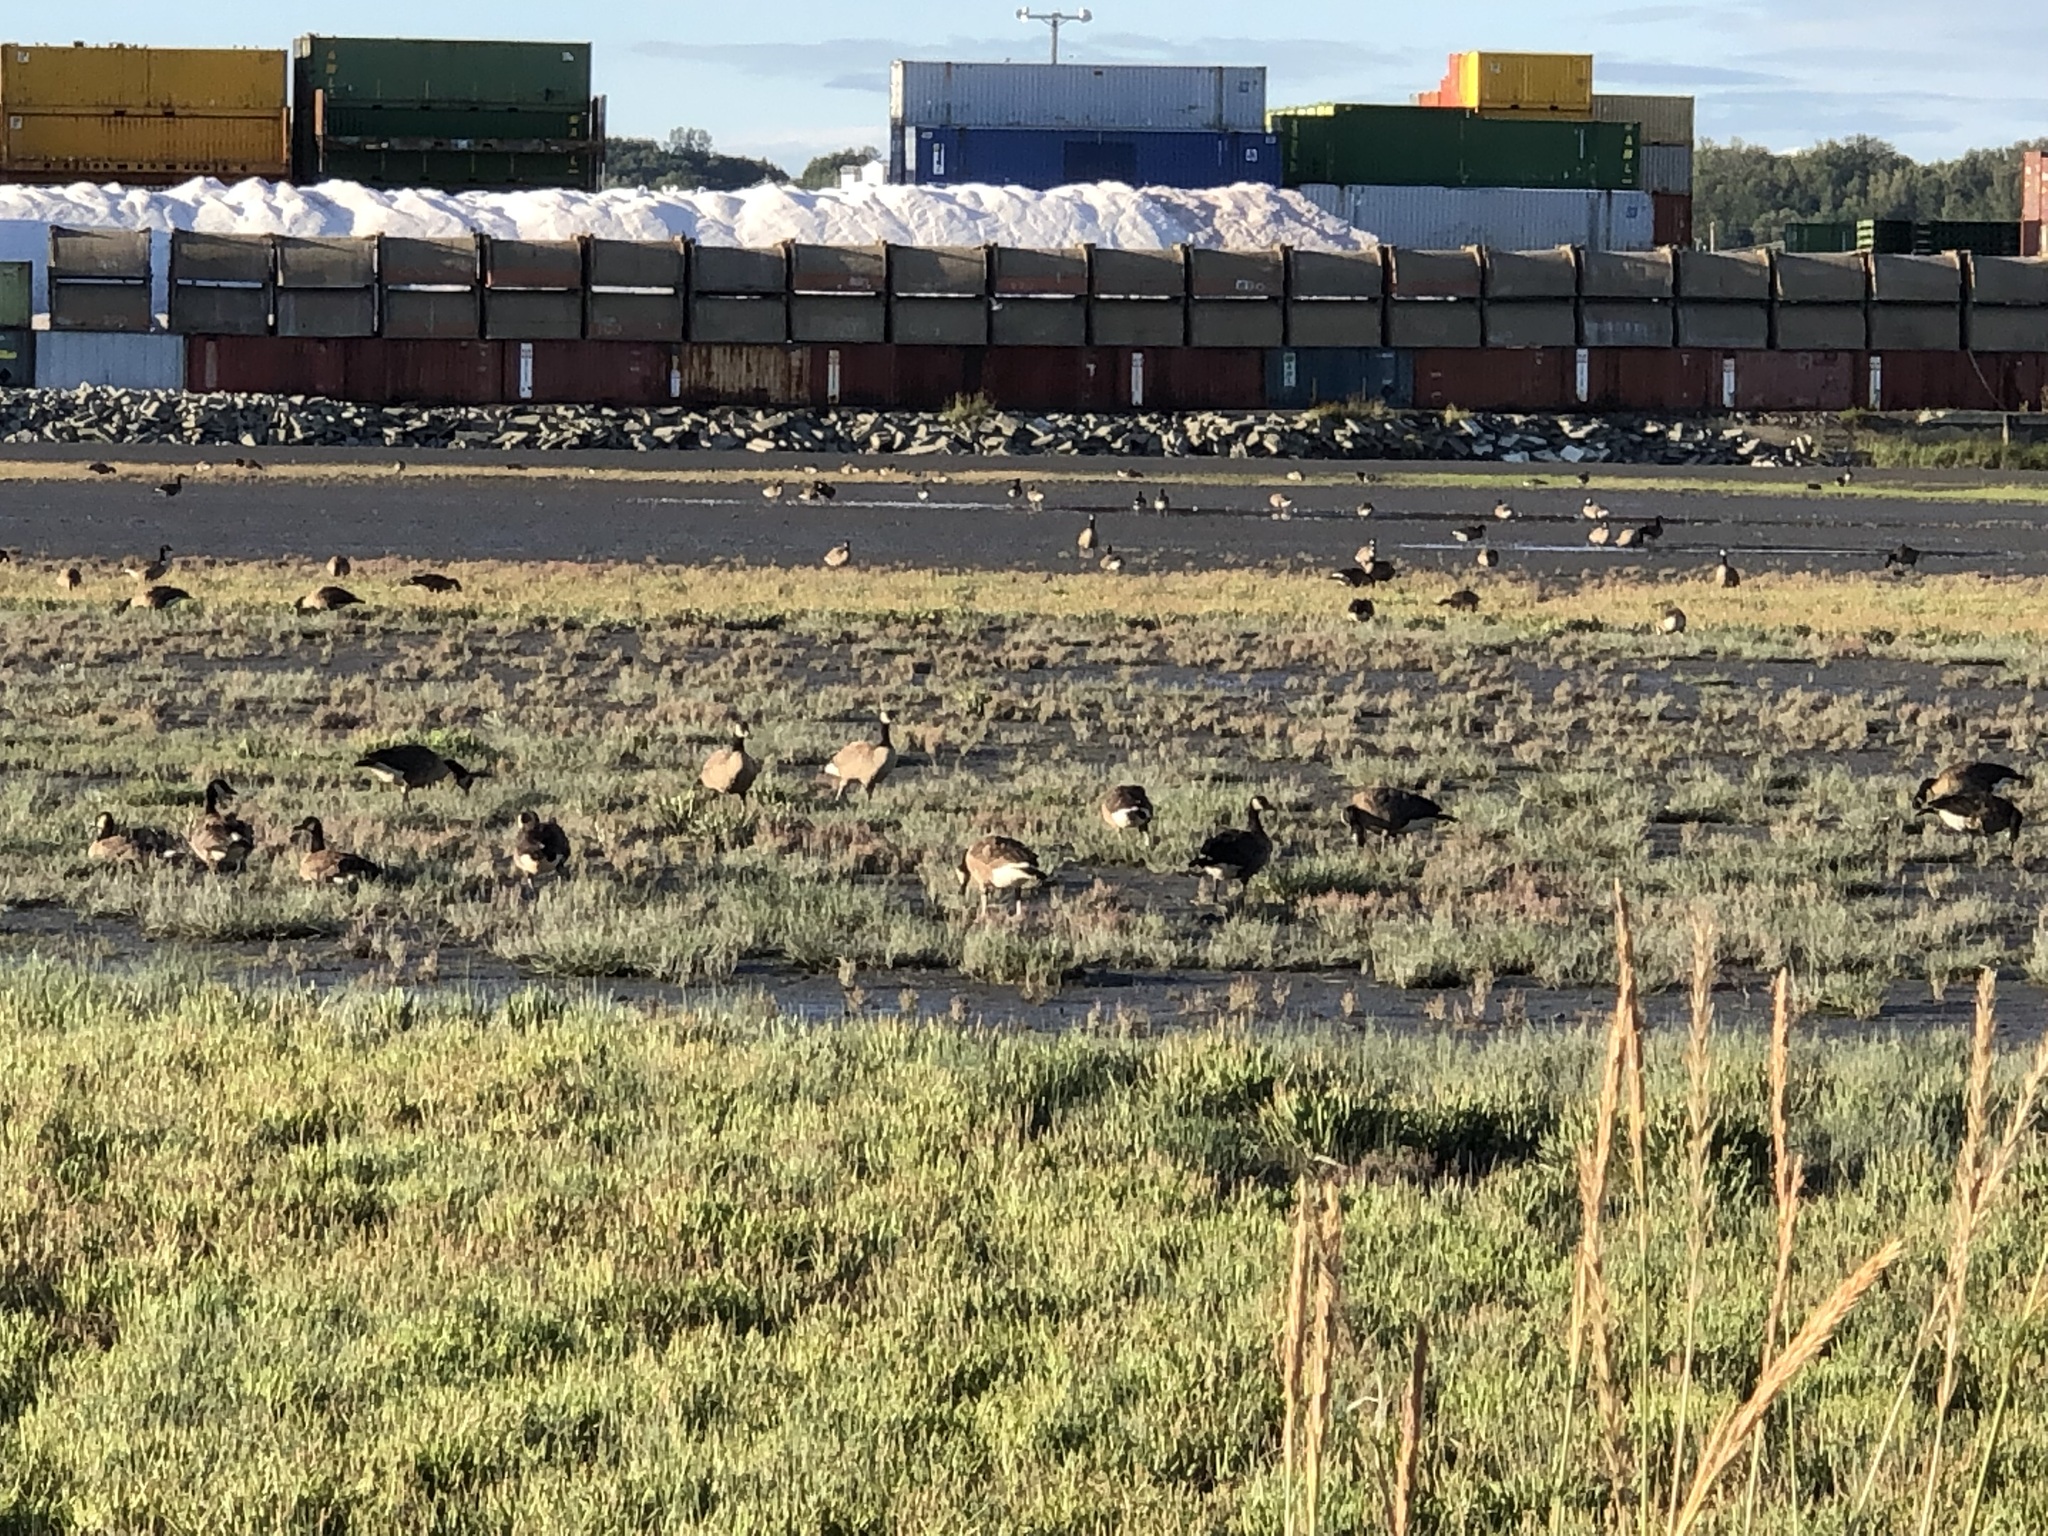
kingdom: Animalia
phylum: Chordata
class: Aves
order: Anseriformes
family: Anatidae
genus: Branta
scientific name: Branta canadensis
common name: Canada goose
